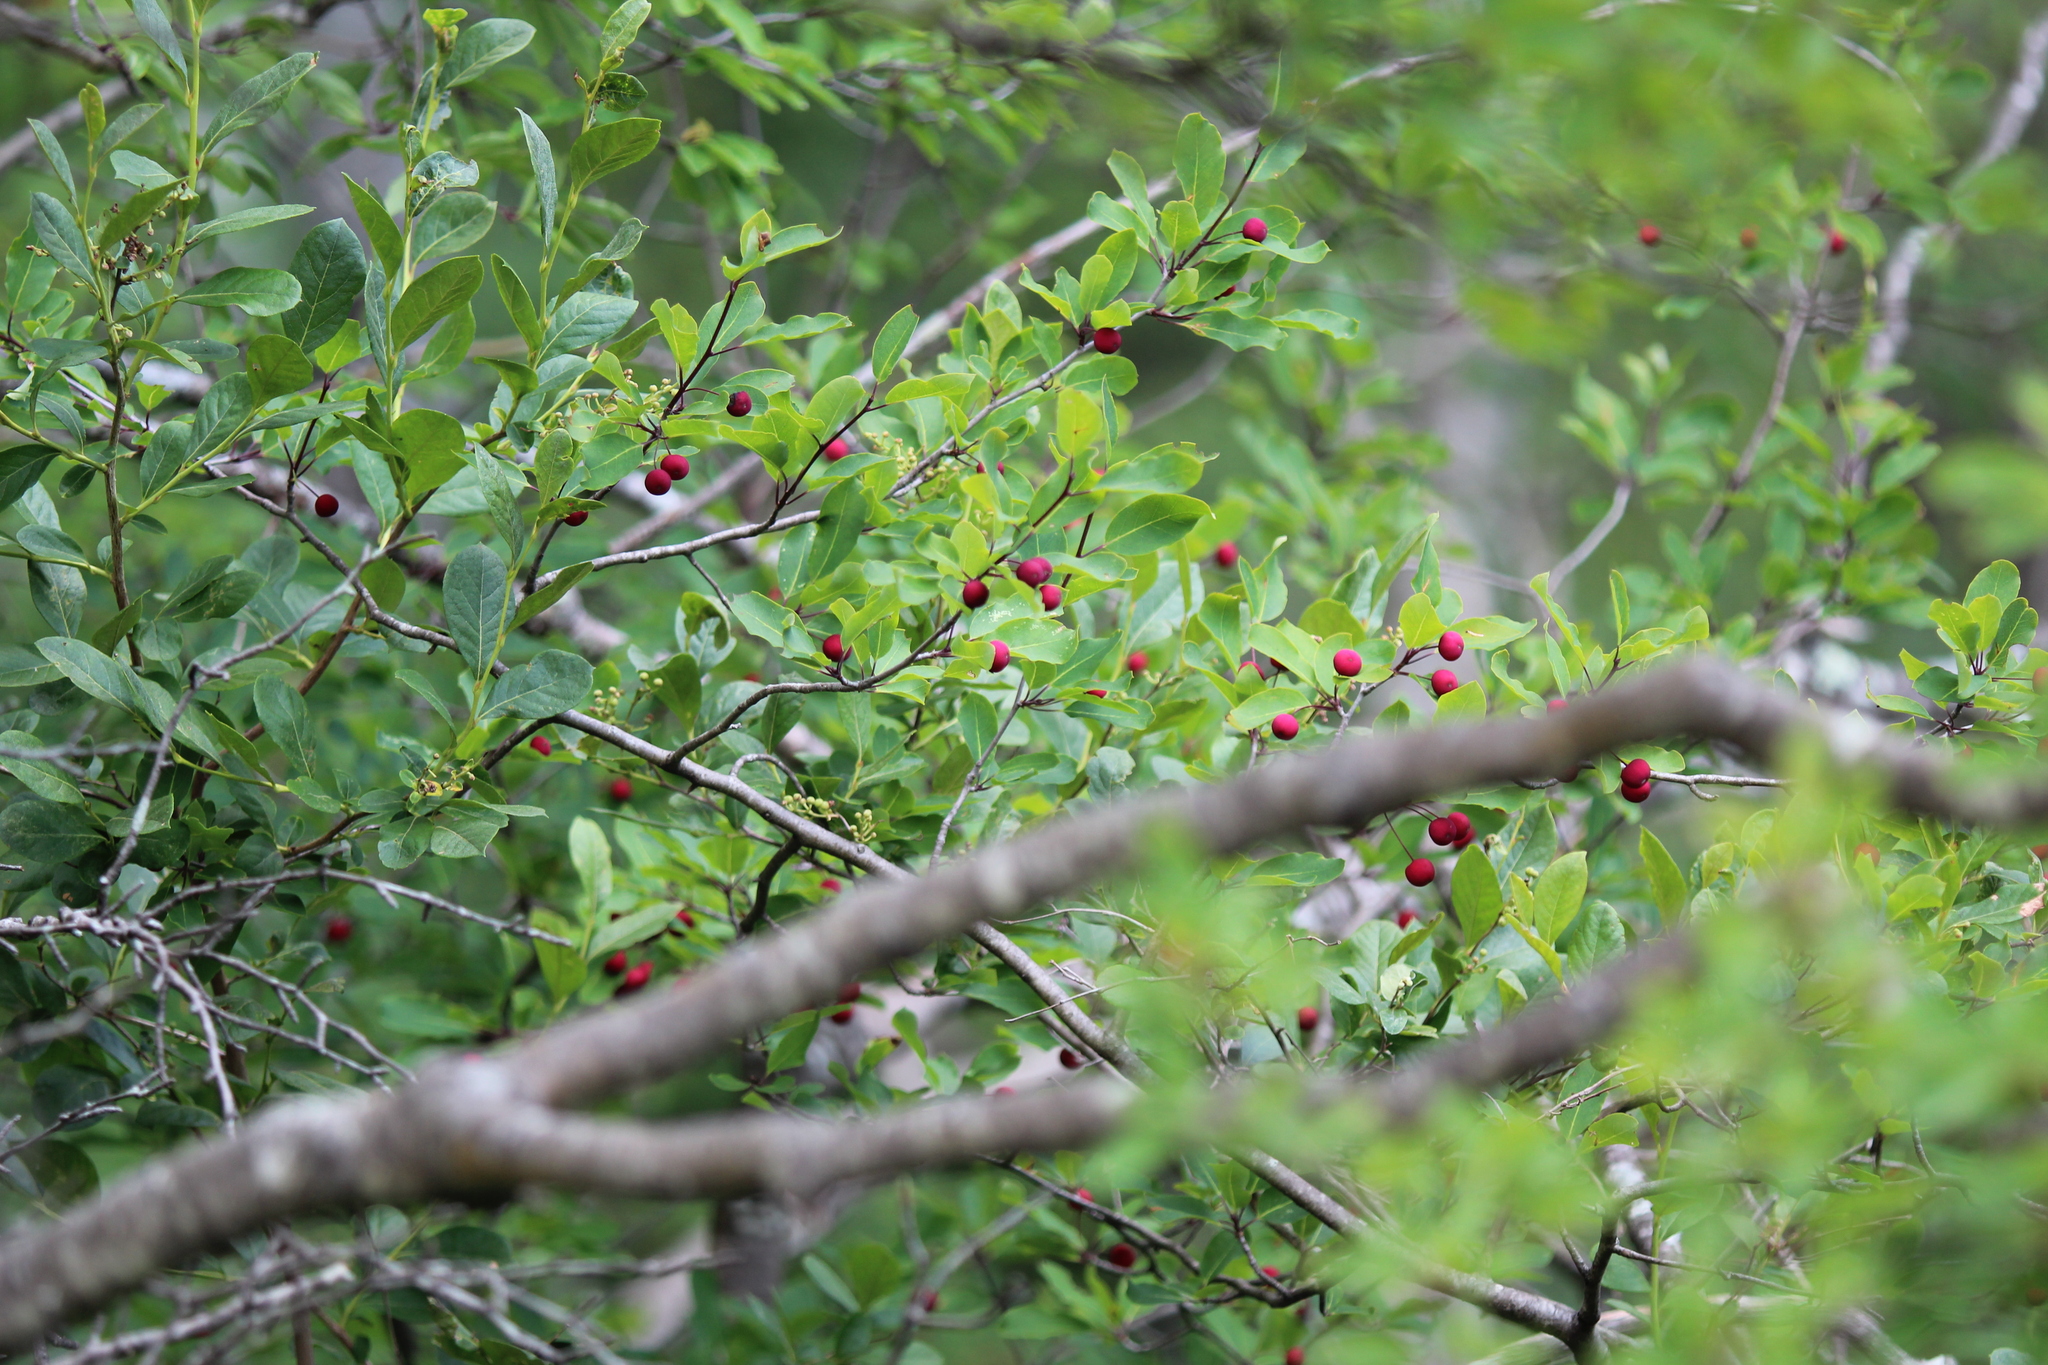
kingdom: Plantae
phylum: Tracheophyta
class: Magnoliopsida
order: Aquifoliales
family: Aquifoliaceae
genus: Ilex
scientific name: Ilex mucronata
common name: Catberry
